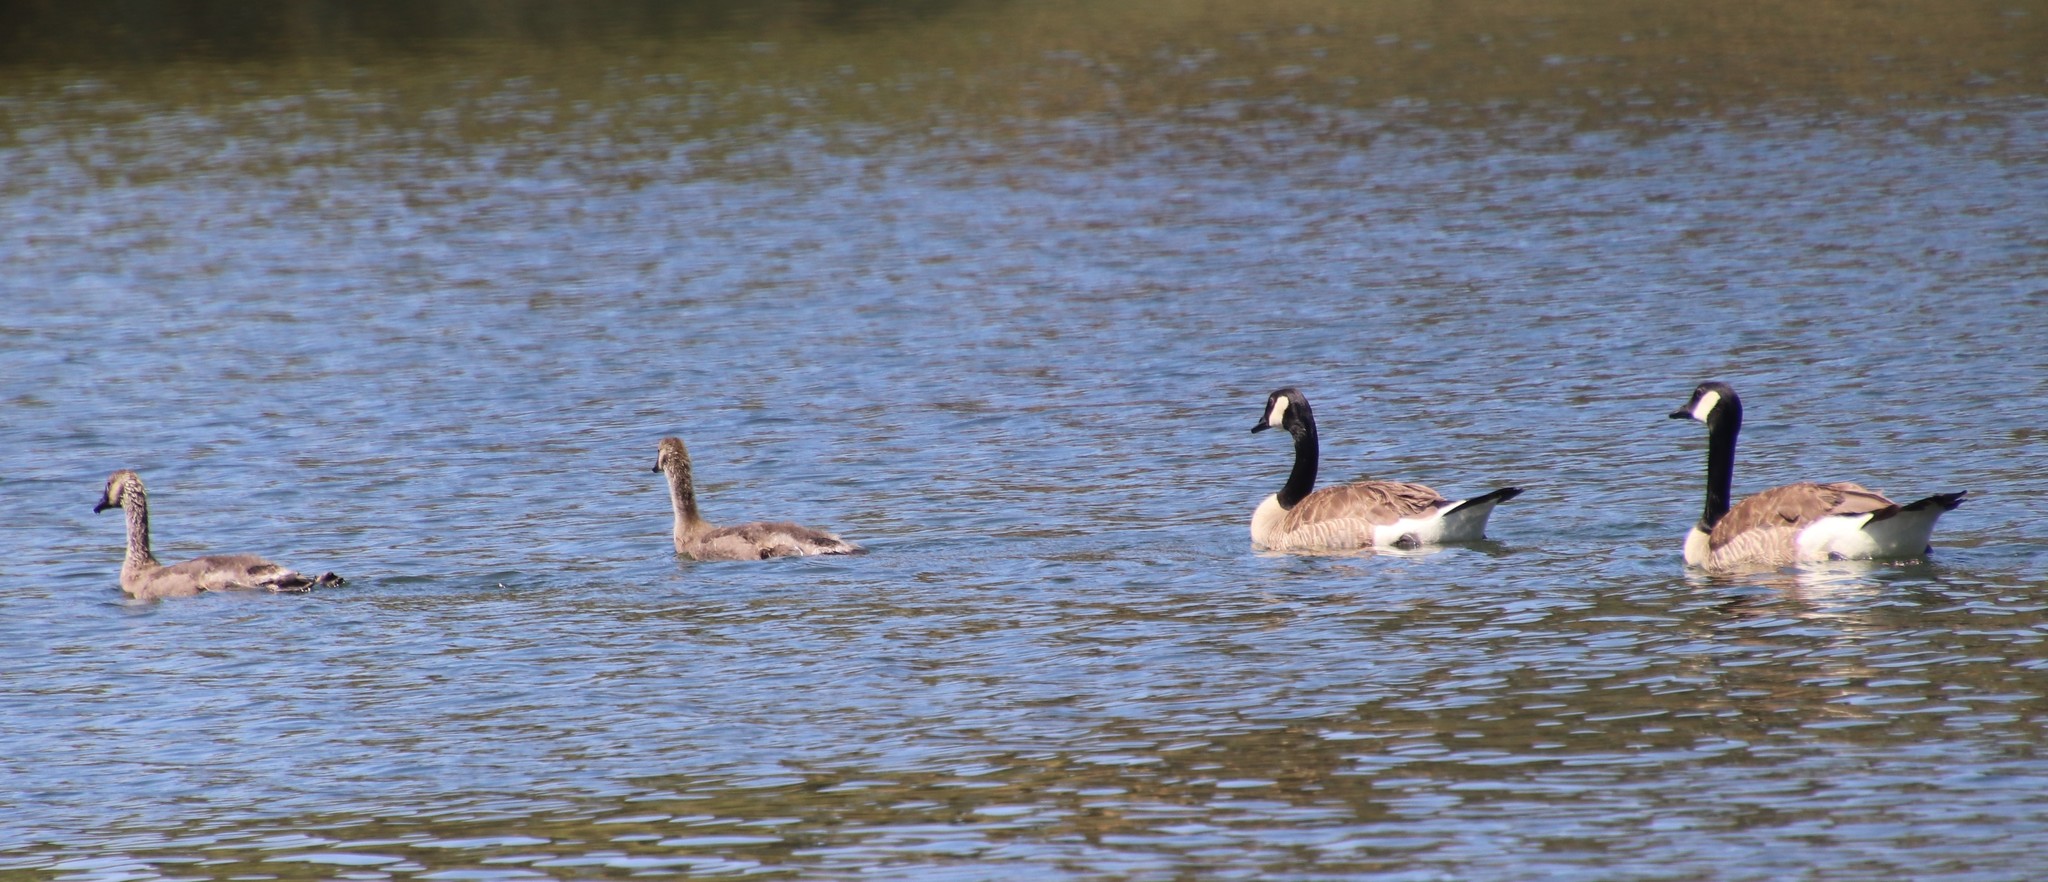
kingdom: Animalia
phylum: Chordata
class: Aves
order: Anseriformes
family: Anatidae
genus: Branta
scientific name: Branta canadensis
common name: Canada goose
